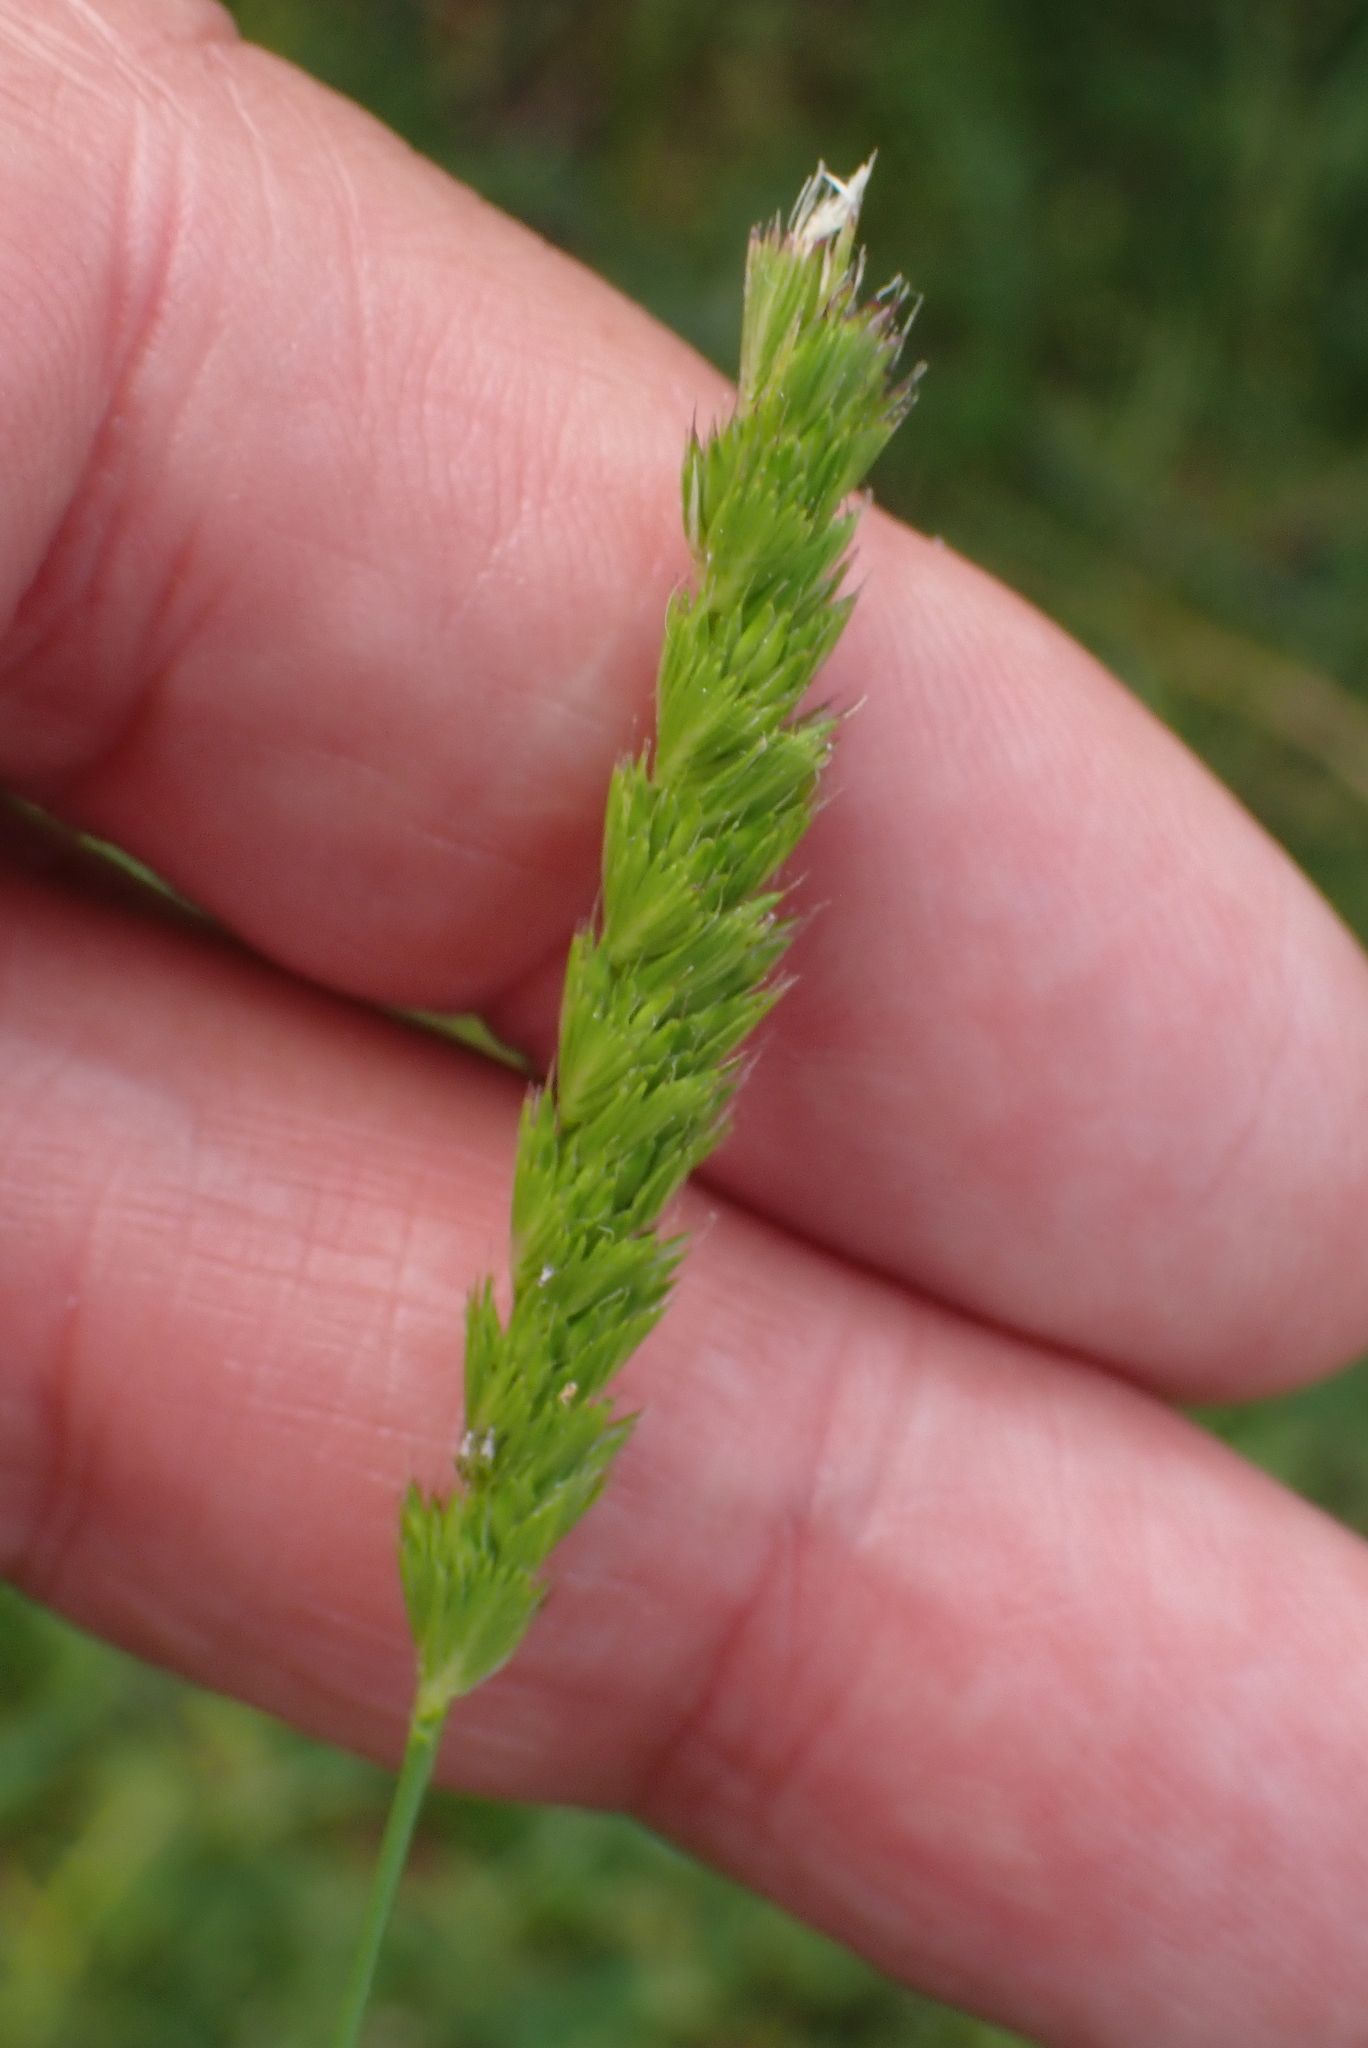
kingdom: Plantae
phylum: Tracheophyta
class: Liliopsida
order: Poales
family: Poaceae
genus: Cynosurus
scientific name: Cynosurus cristatus
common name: Crested dog's-tail
